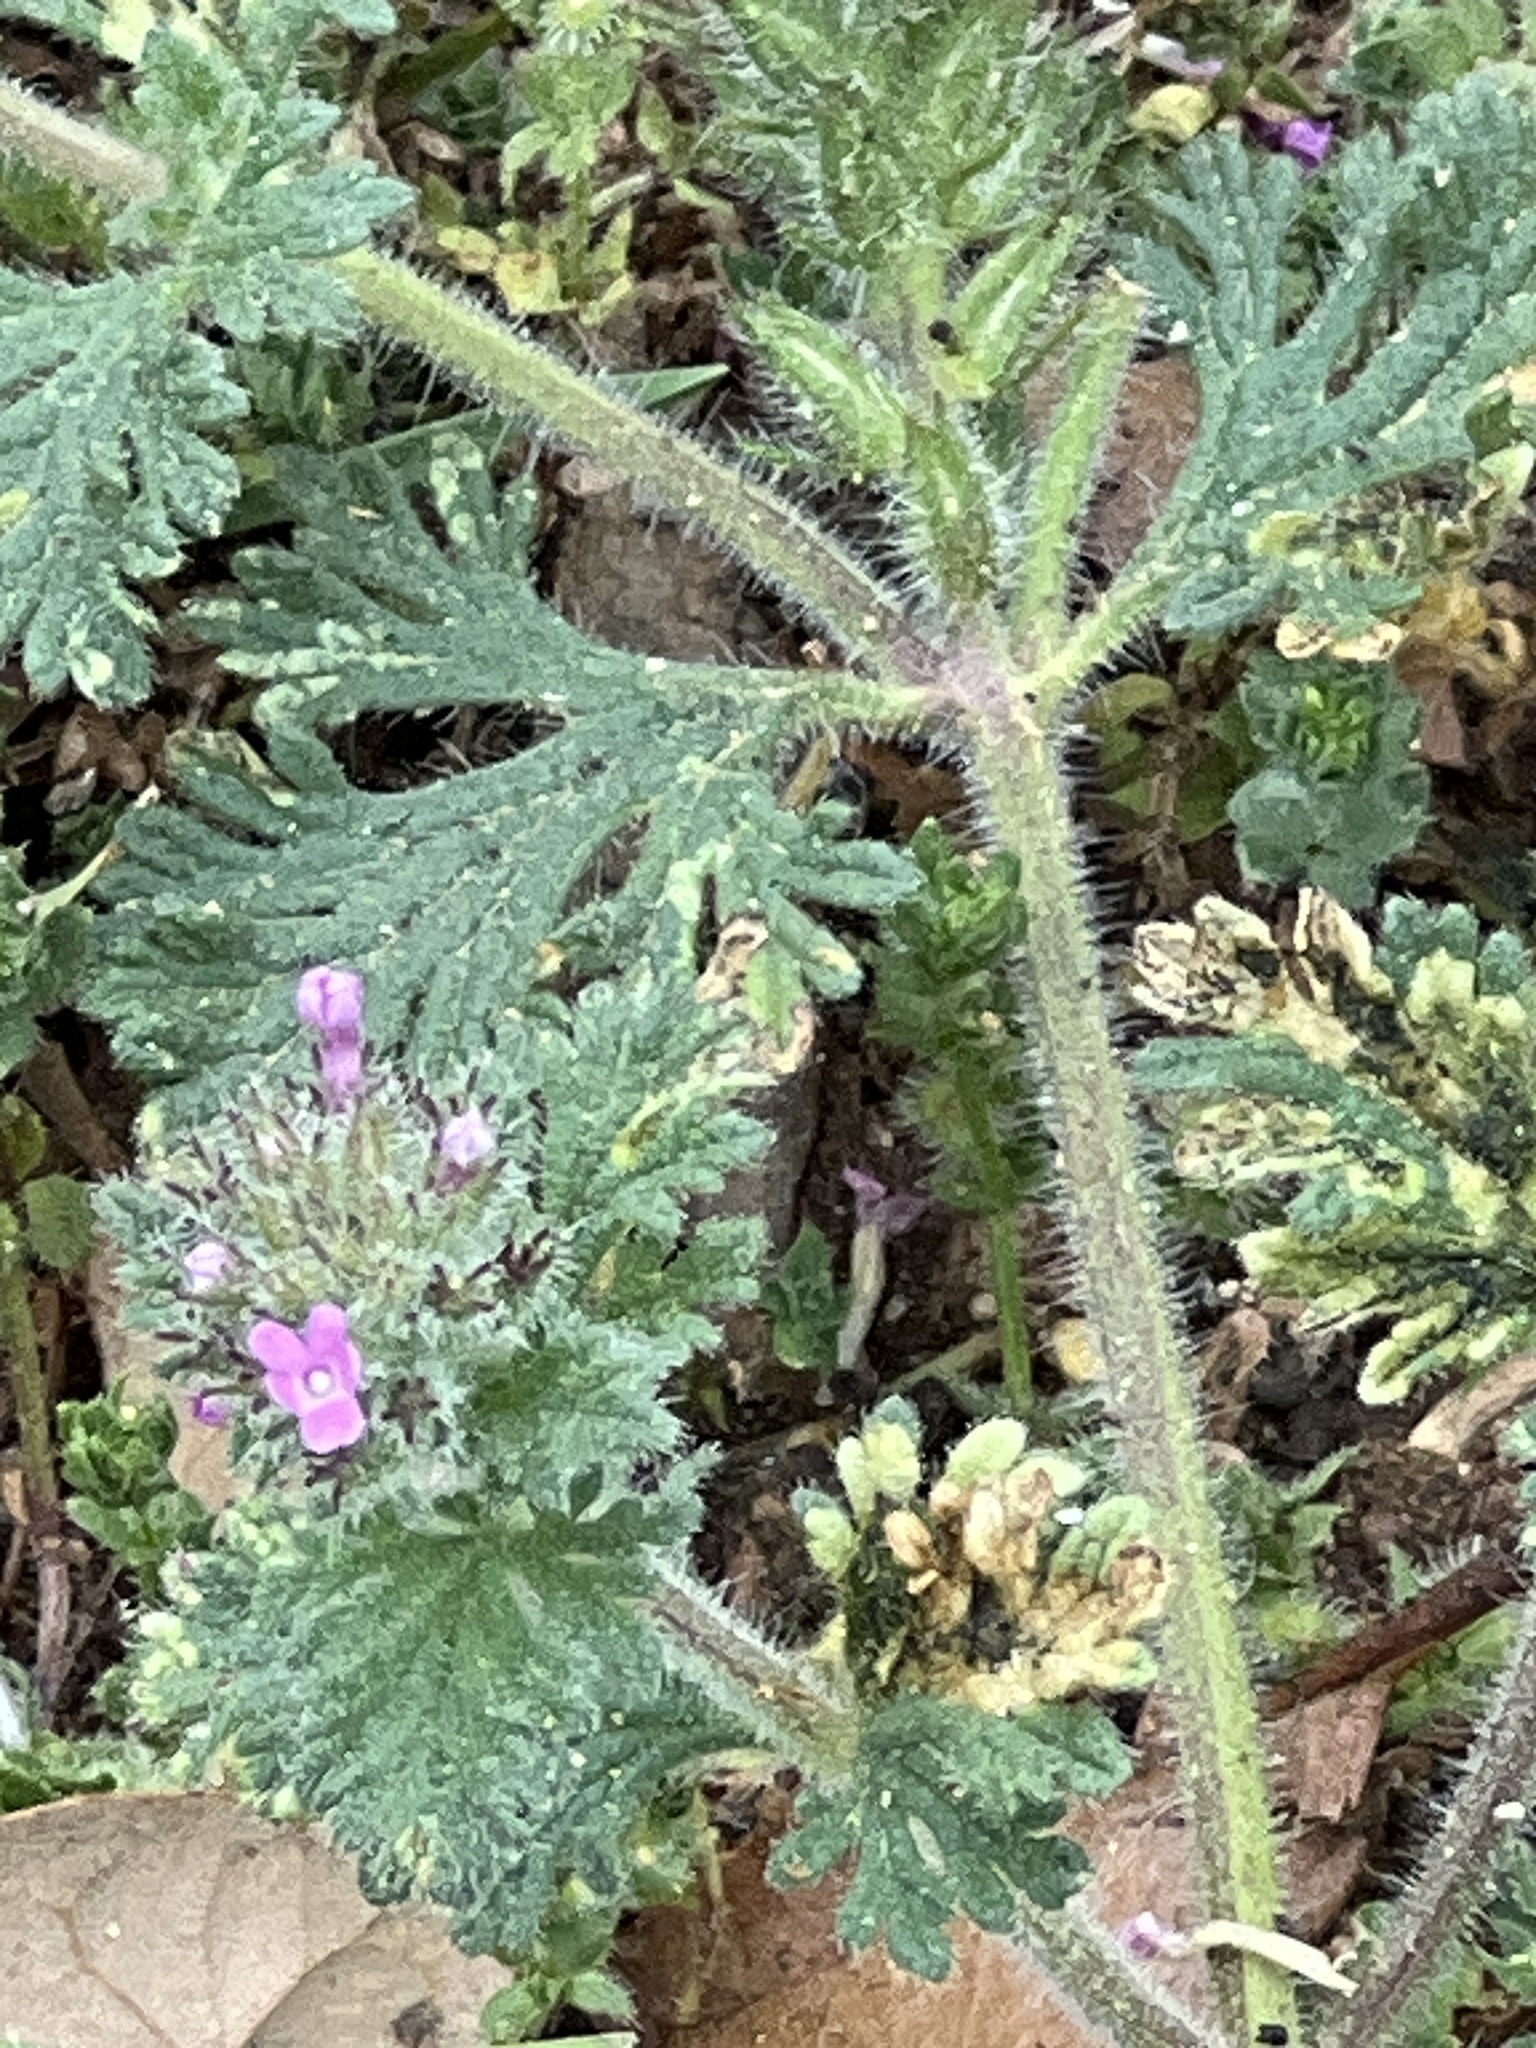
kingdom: Plantae
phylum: Tracheophyta
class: Magnoliopsida
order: Lamiales
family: Verbenaceae
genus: Verbena
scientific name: Verbena pumila
